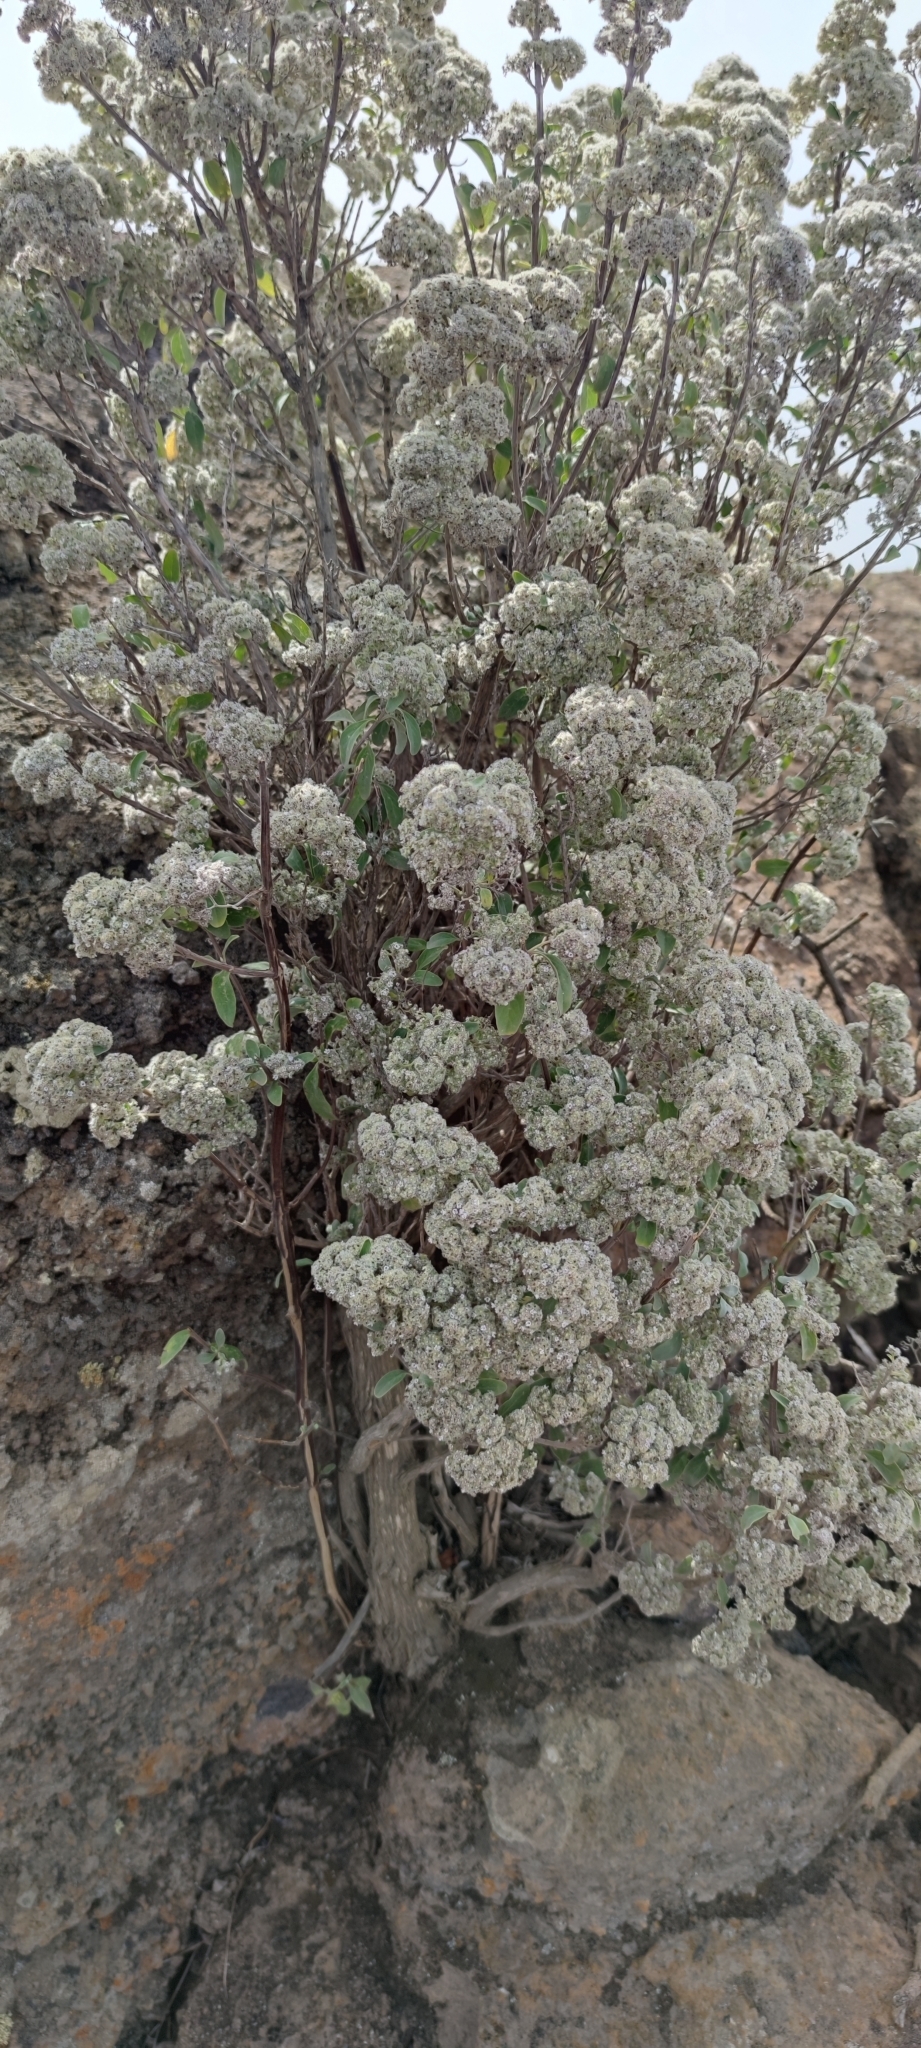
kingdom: Plantae
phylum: Tracheophyta
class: Magnoliopsida
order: Lamiales
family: Lamiaceae
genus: Bystropogon
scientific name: Bystropogon origanifolius
